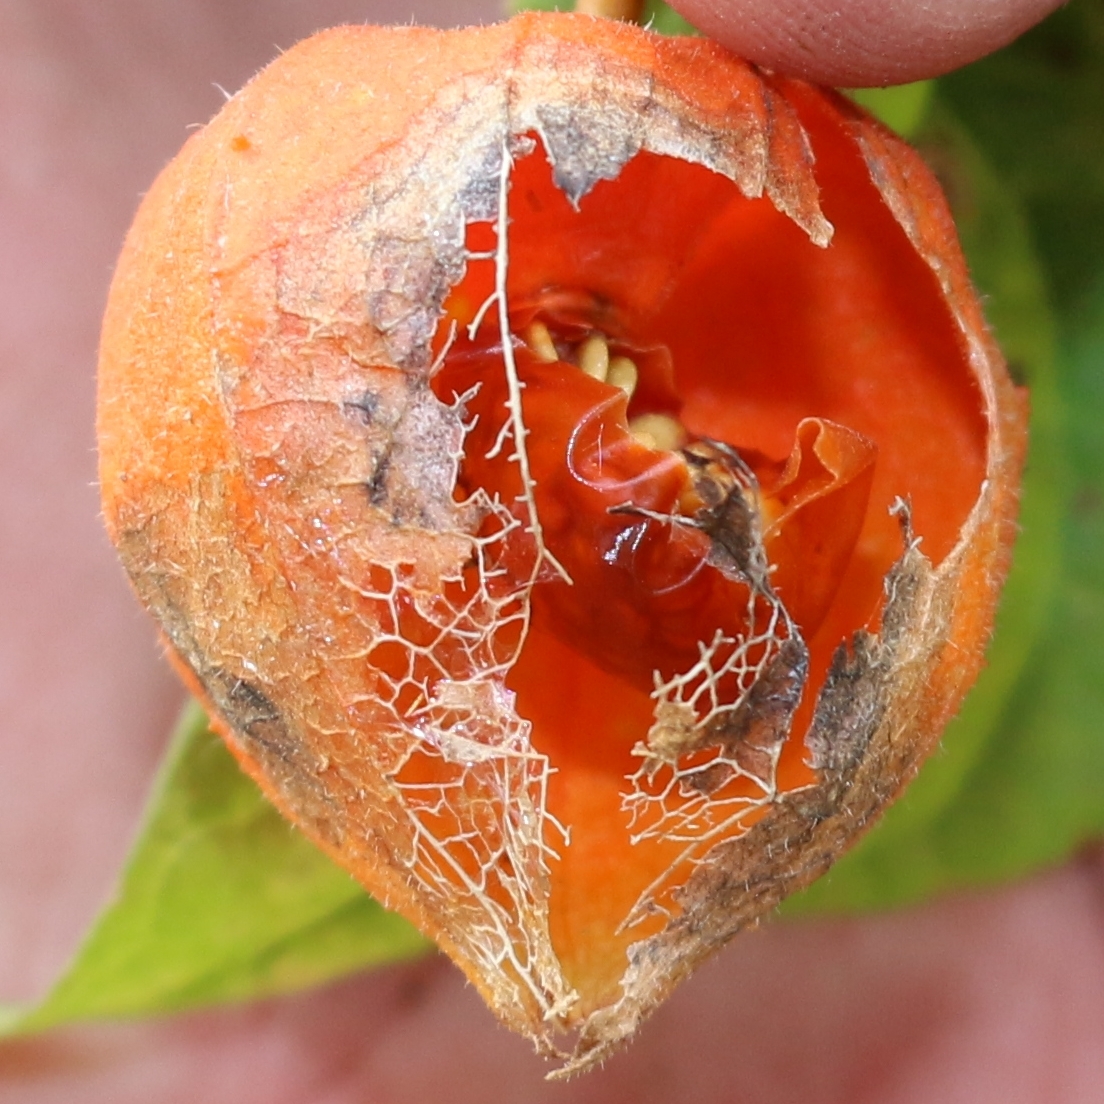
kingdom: Plantae
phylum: Tracheophyta
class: Magnoliopsida
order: Solanales
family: Solanaceae
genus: Alkekengi
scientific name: Alkekengi officinarum
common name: Japanese-lantern
